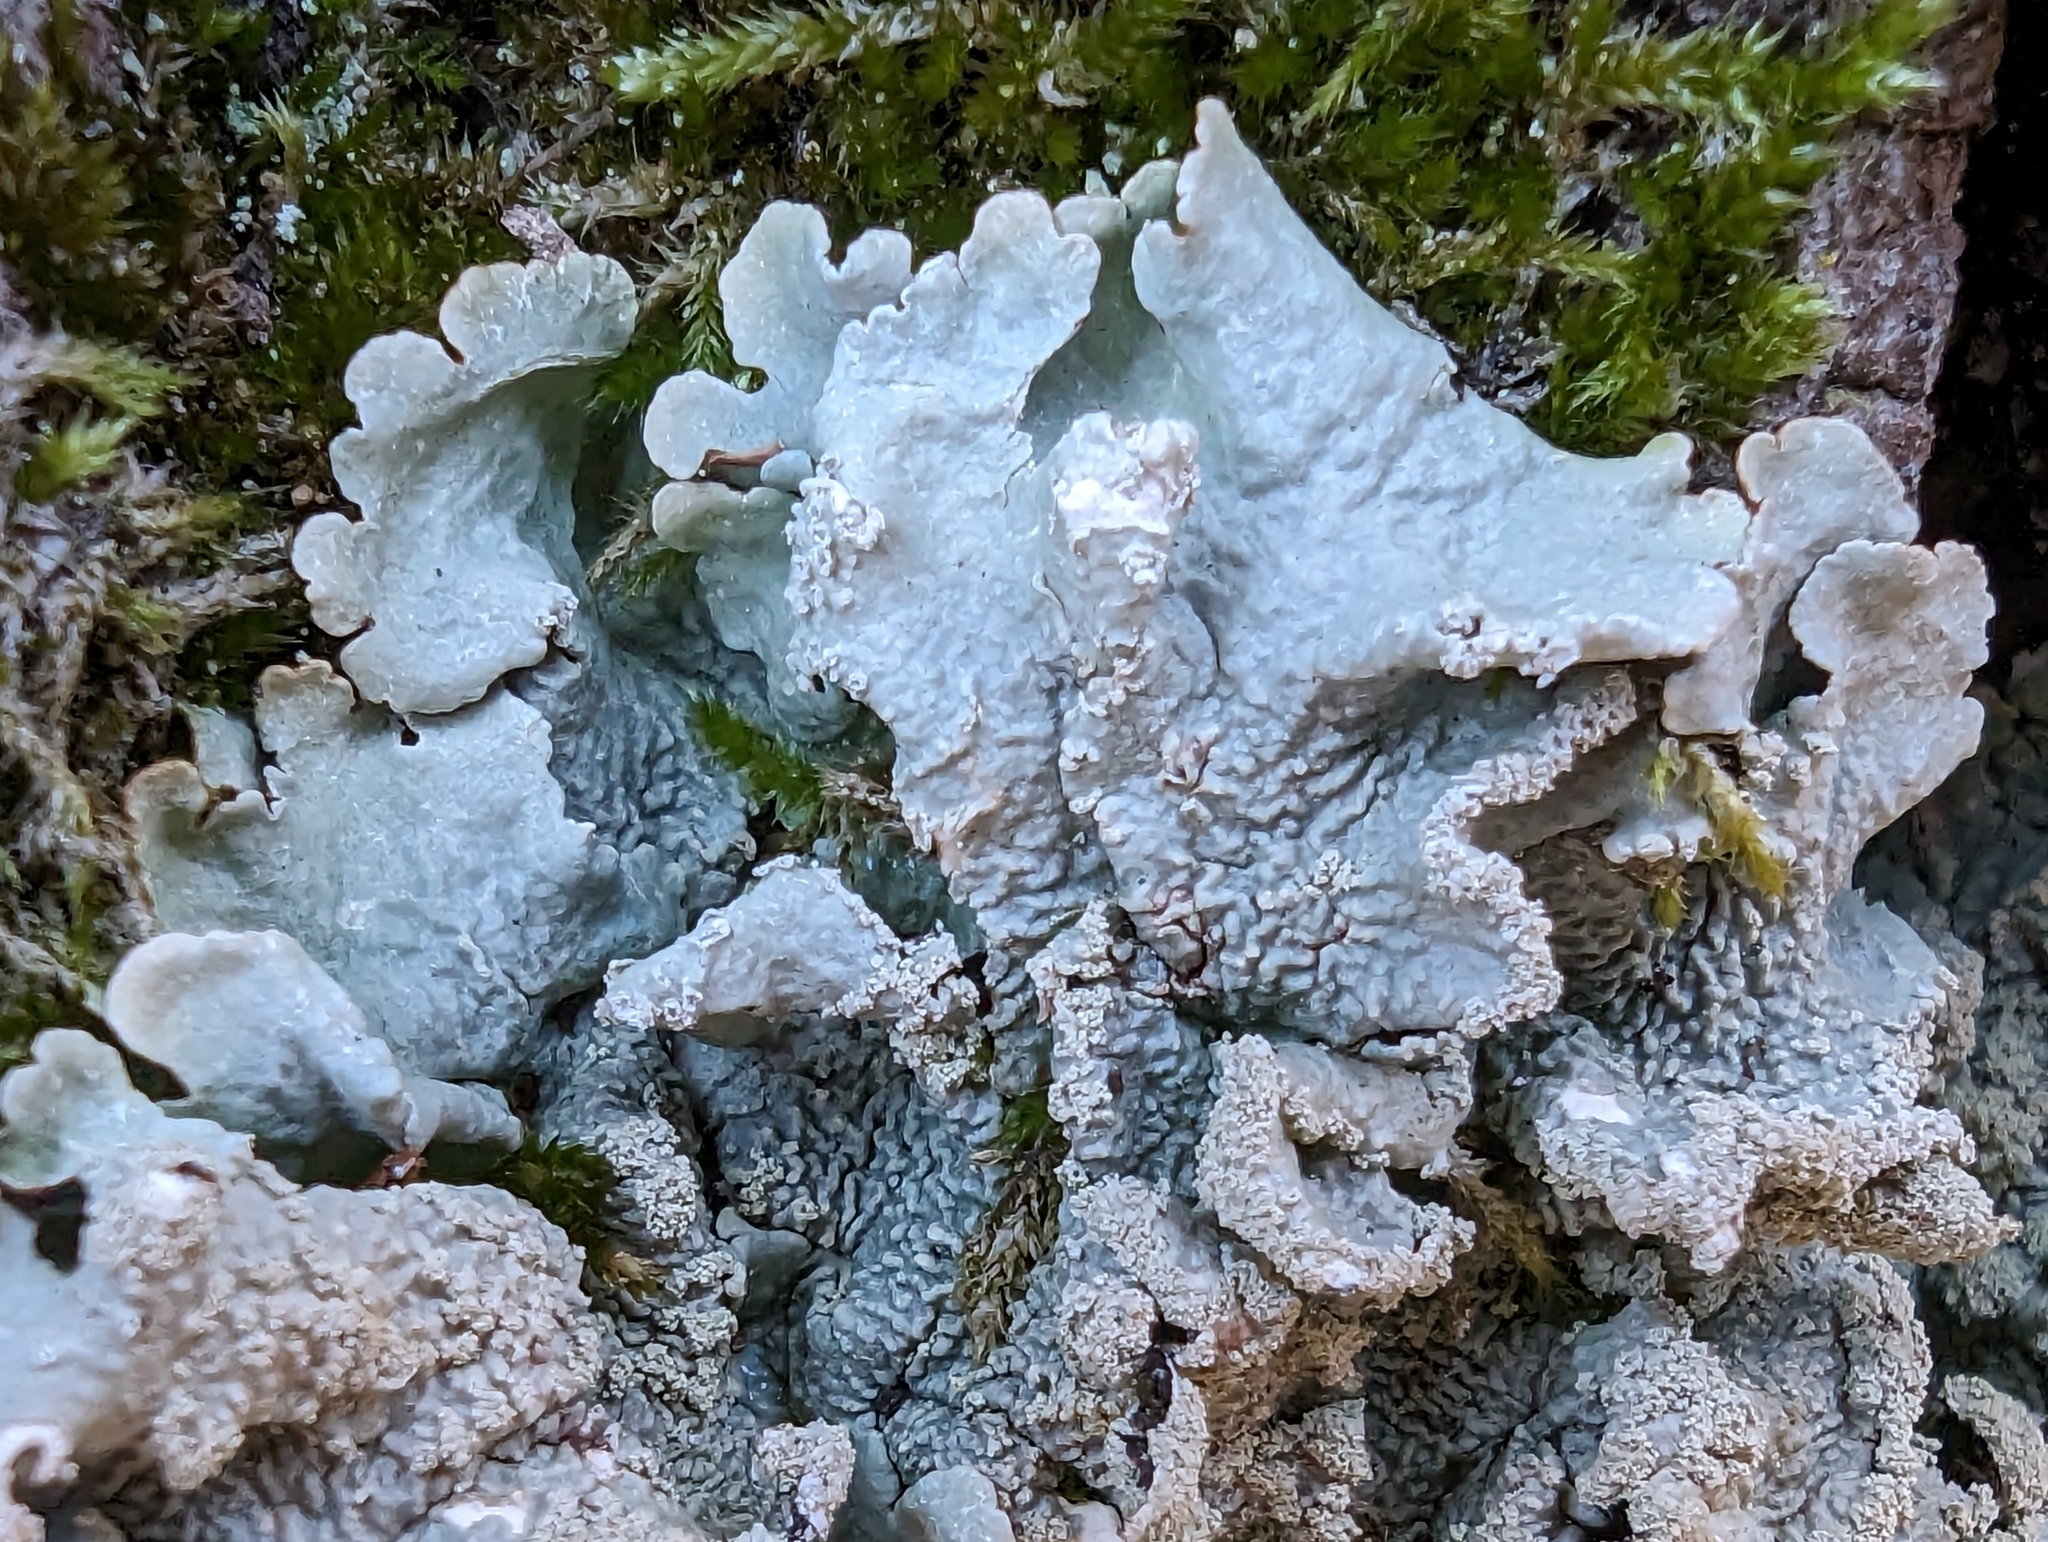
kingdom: Fungi
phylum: Ascomycota
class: Lecanoromycetes
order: Lecanorales
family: Parmeliaceae
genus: Flavoparmelia
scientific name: Flavoparmelia caperata
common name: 40-mile per hour lichen
